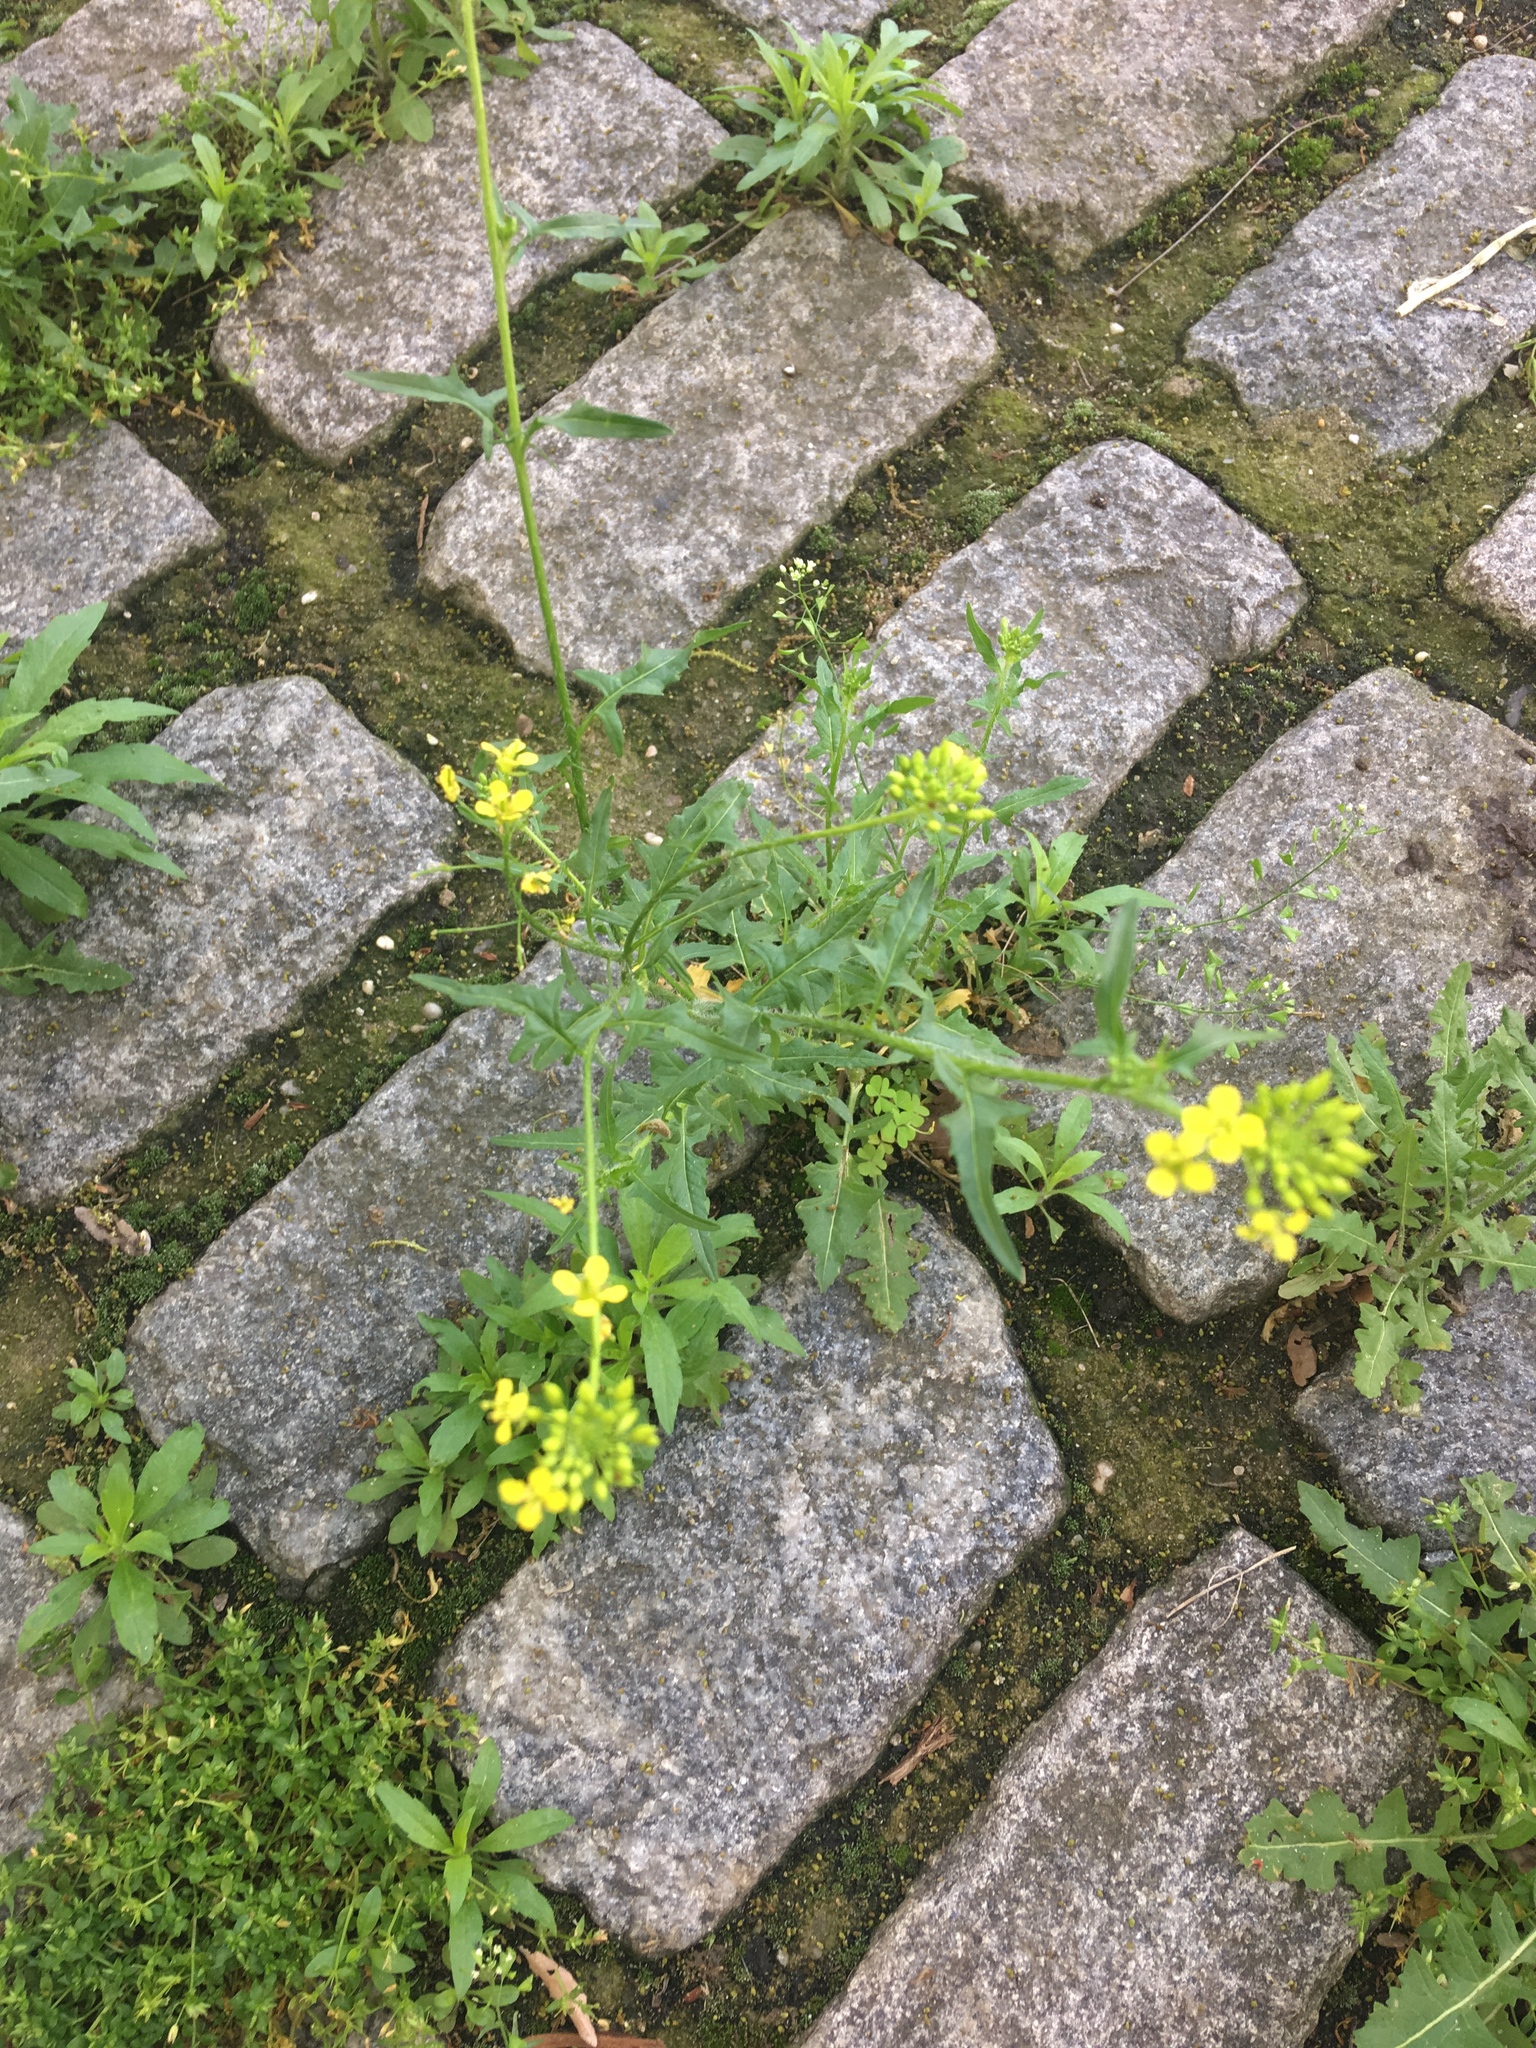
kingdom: Plantae
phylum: Tracheophyta
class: Magnoliopsida
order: Brassicales
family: Brassicaceae
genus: Sisymbrium
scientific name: Sisymbrium loeselii
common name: False london-rocket
